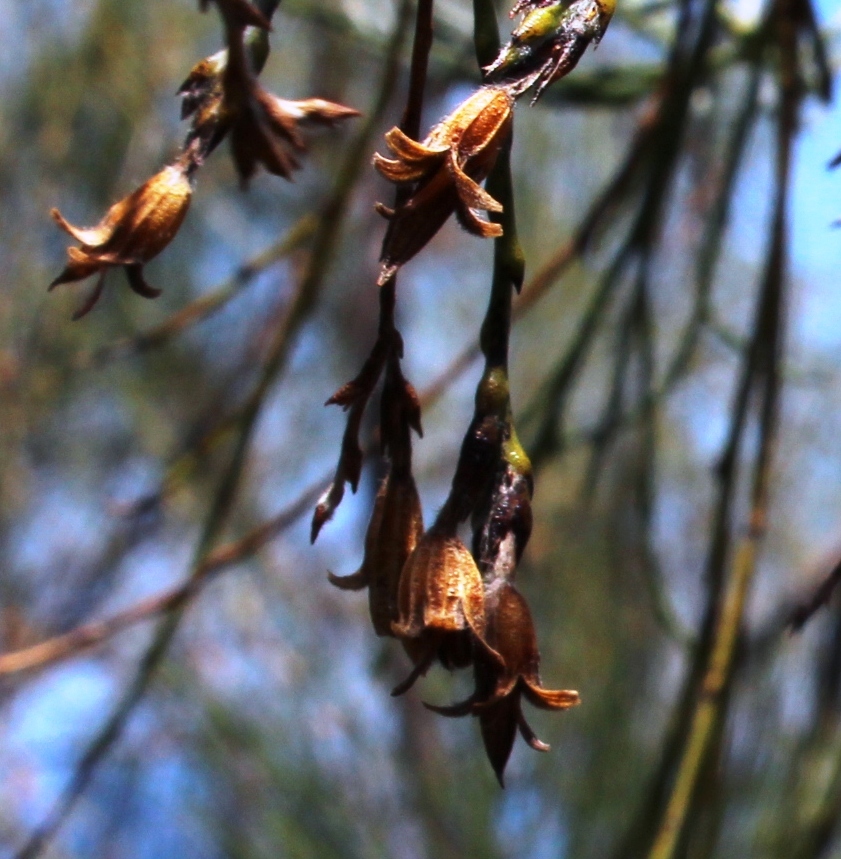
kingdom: Plantae
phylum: Tracheophyta
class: Magnoliopsida
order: Fabales
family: Fabaceae
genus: Psoralea
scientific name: Psoralea aphylla
